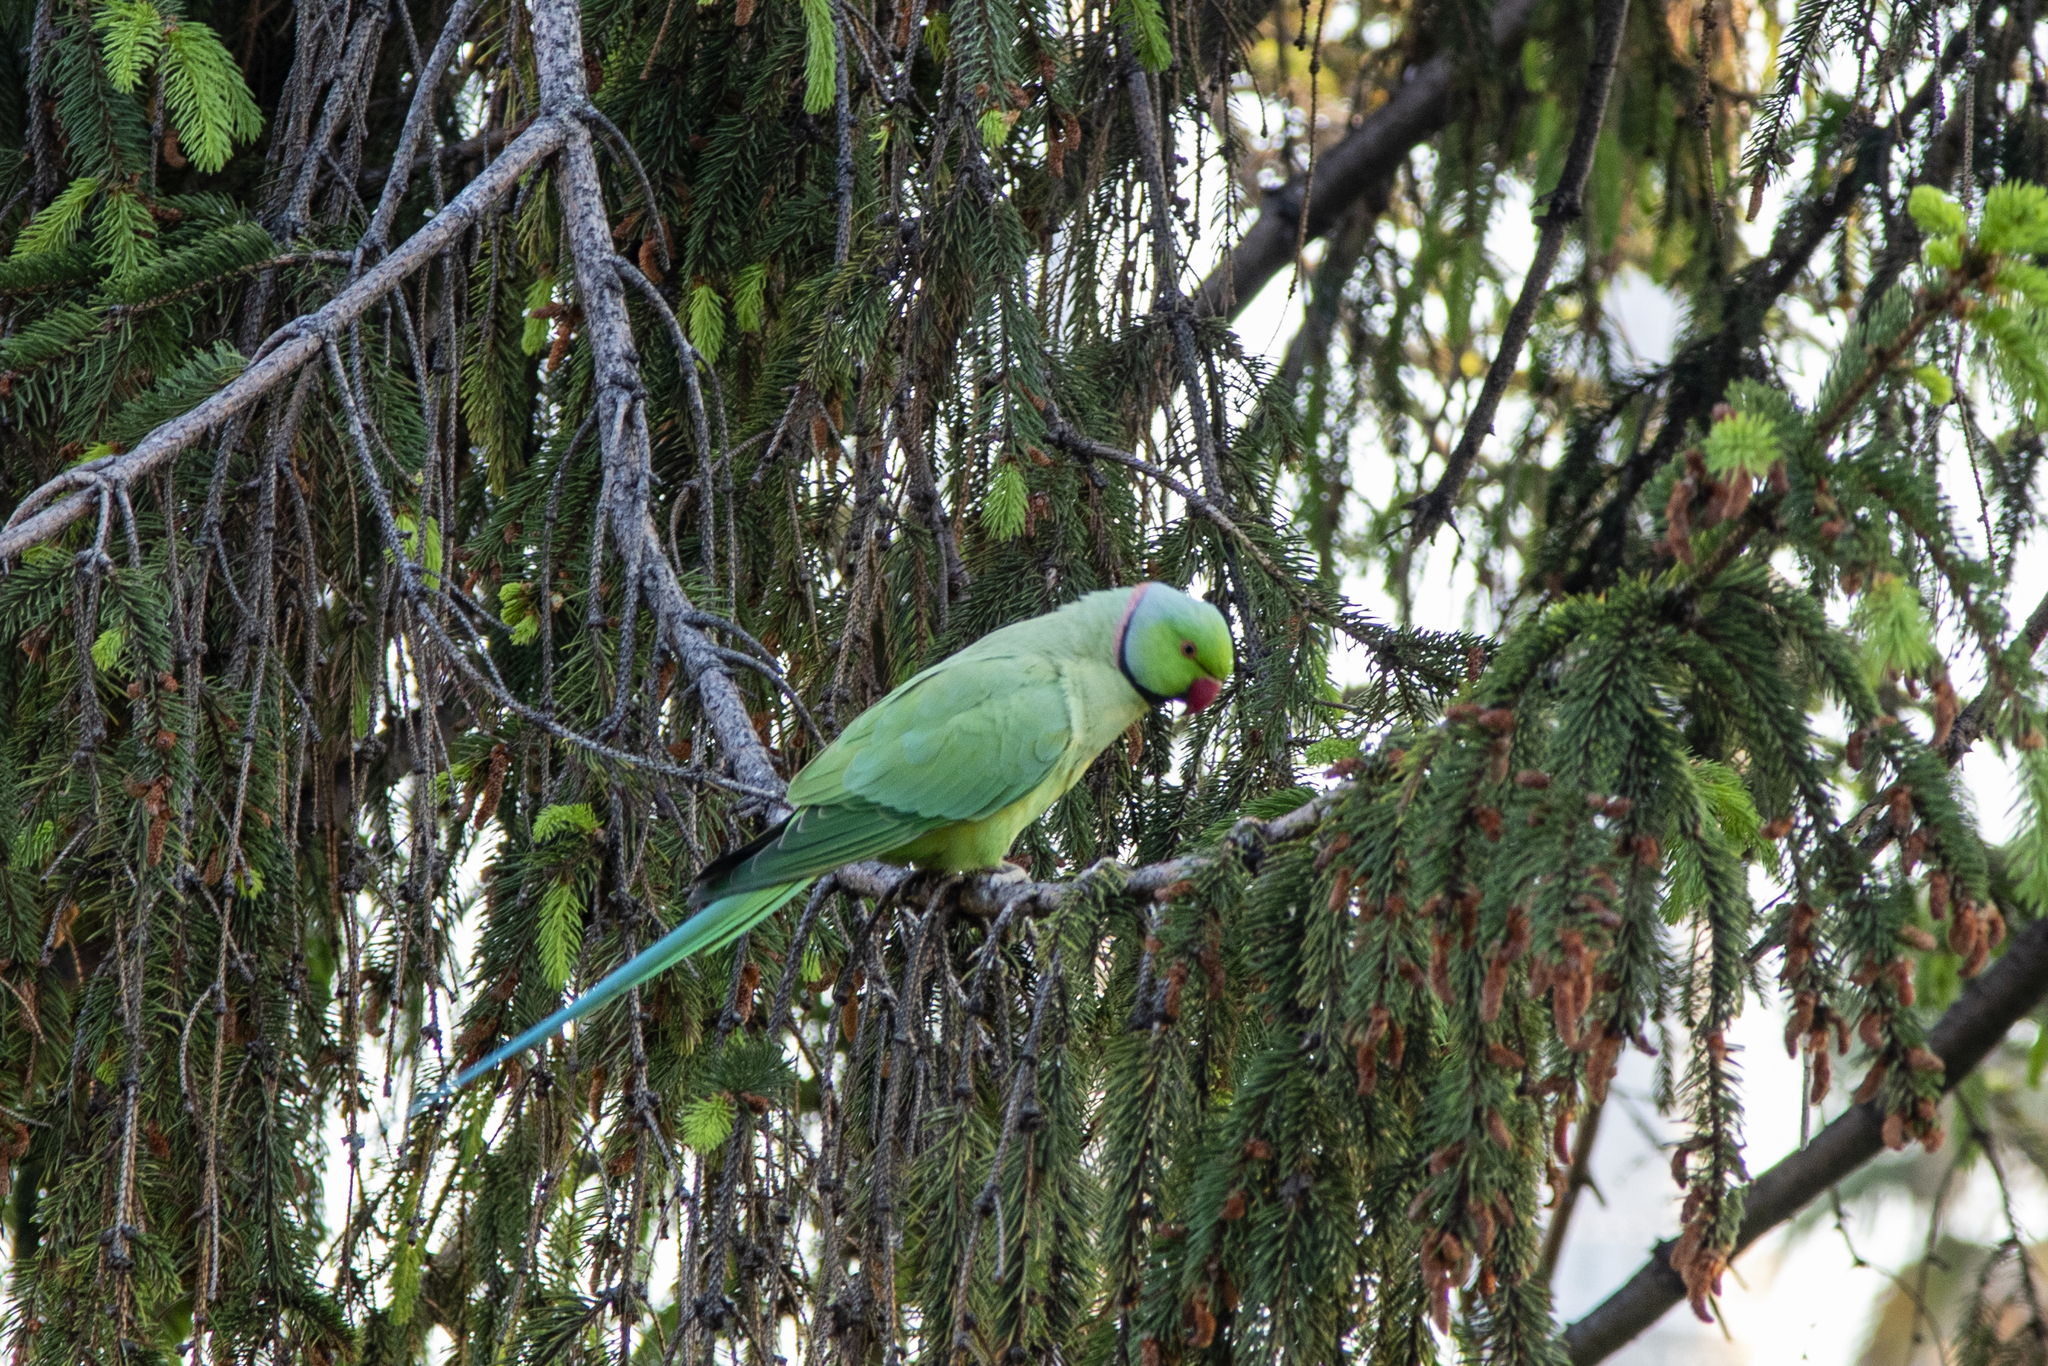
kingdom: Animalia
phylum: Chordata
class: Aves
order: Psittaciformes
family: Psittacidae
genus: Psittacula
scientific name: Psittacula krameri
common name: Rose-ringed parakeet
